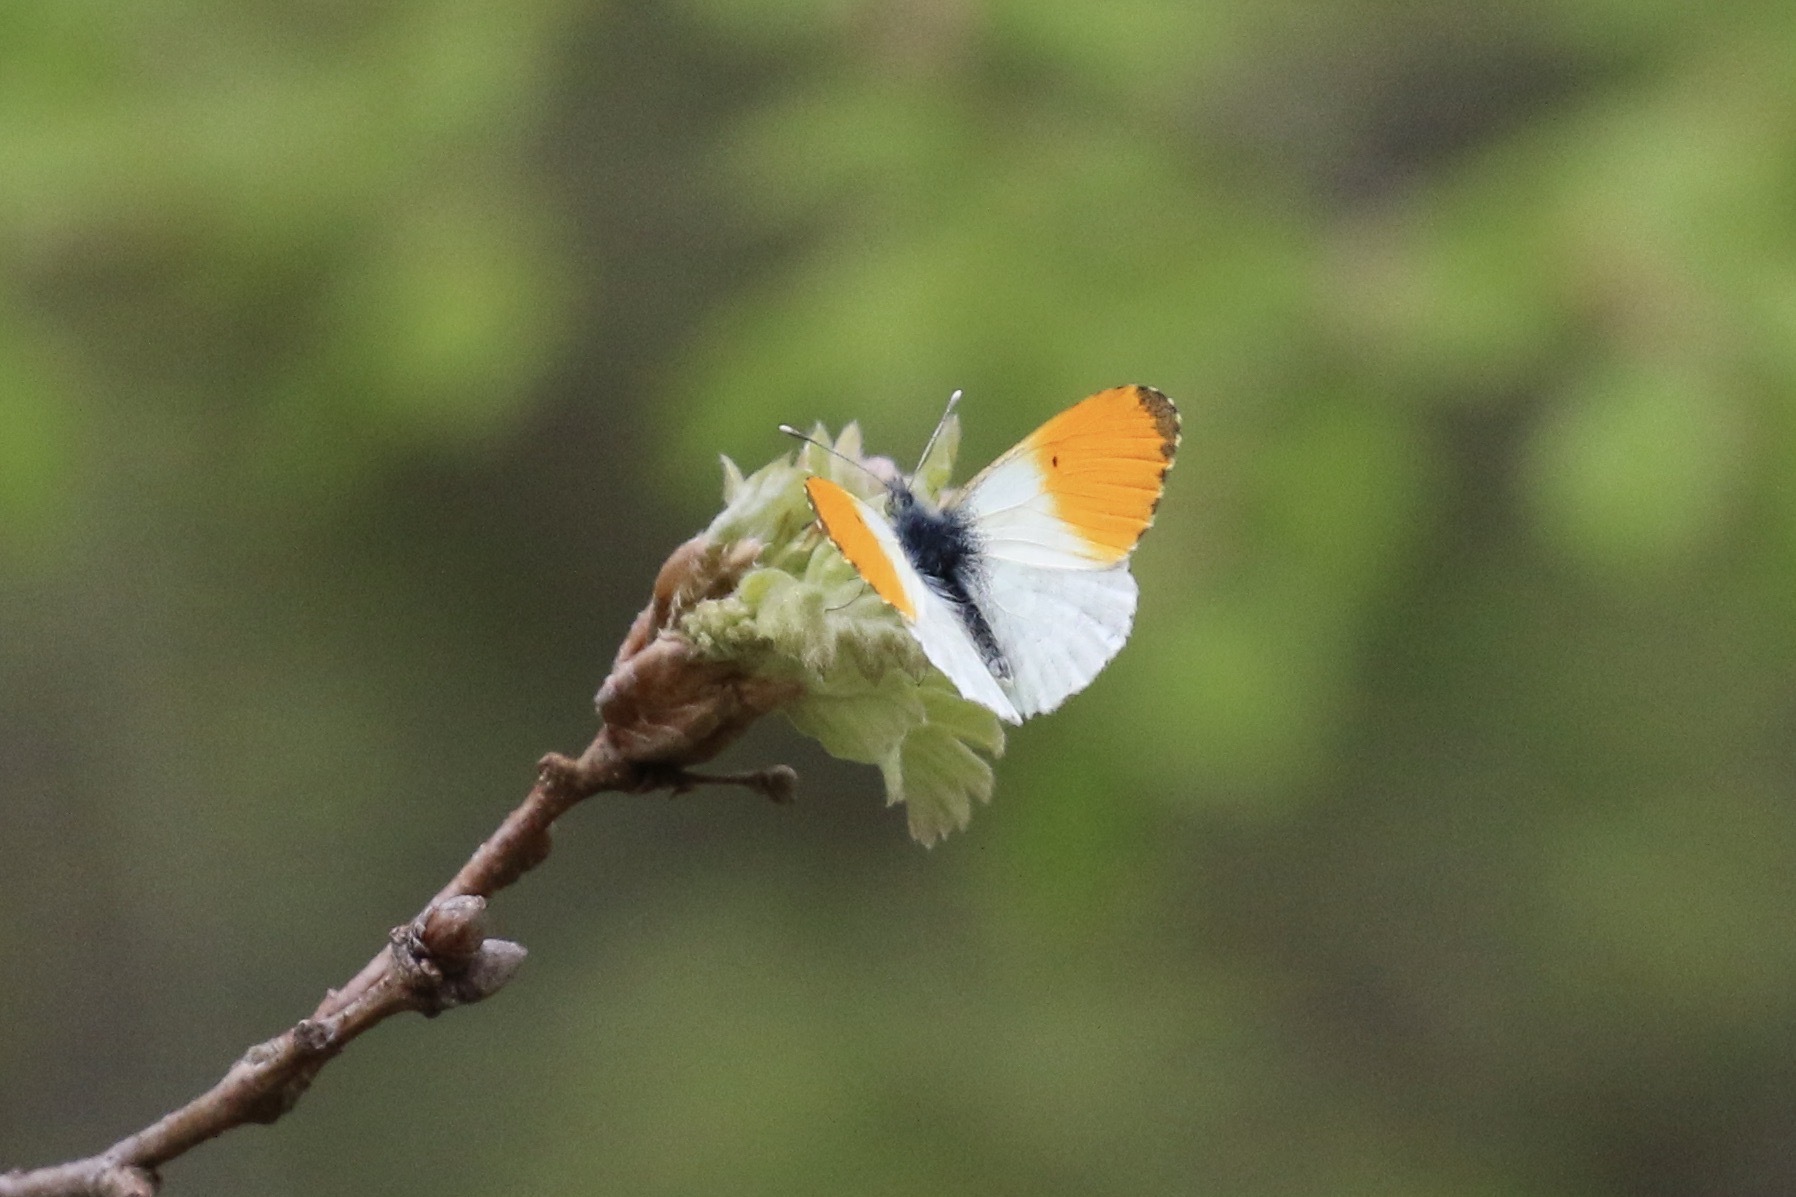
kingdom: Animalia
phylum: Arthropoda
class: Insecta
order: Lepidoptera
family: Pieridae
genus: Anthocharis
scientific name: Anthocharis cardamines
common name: Orange-tip
